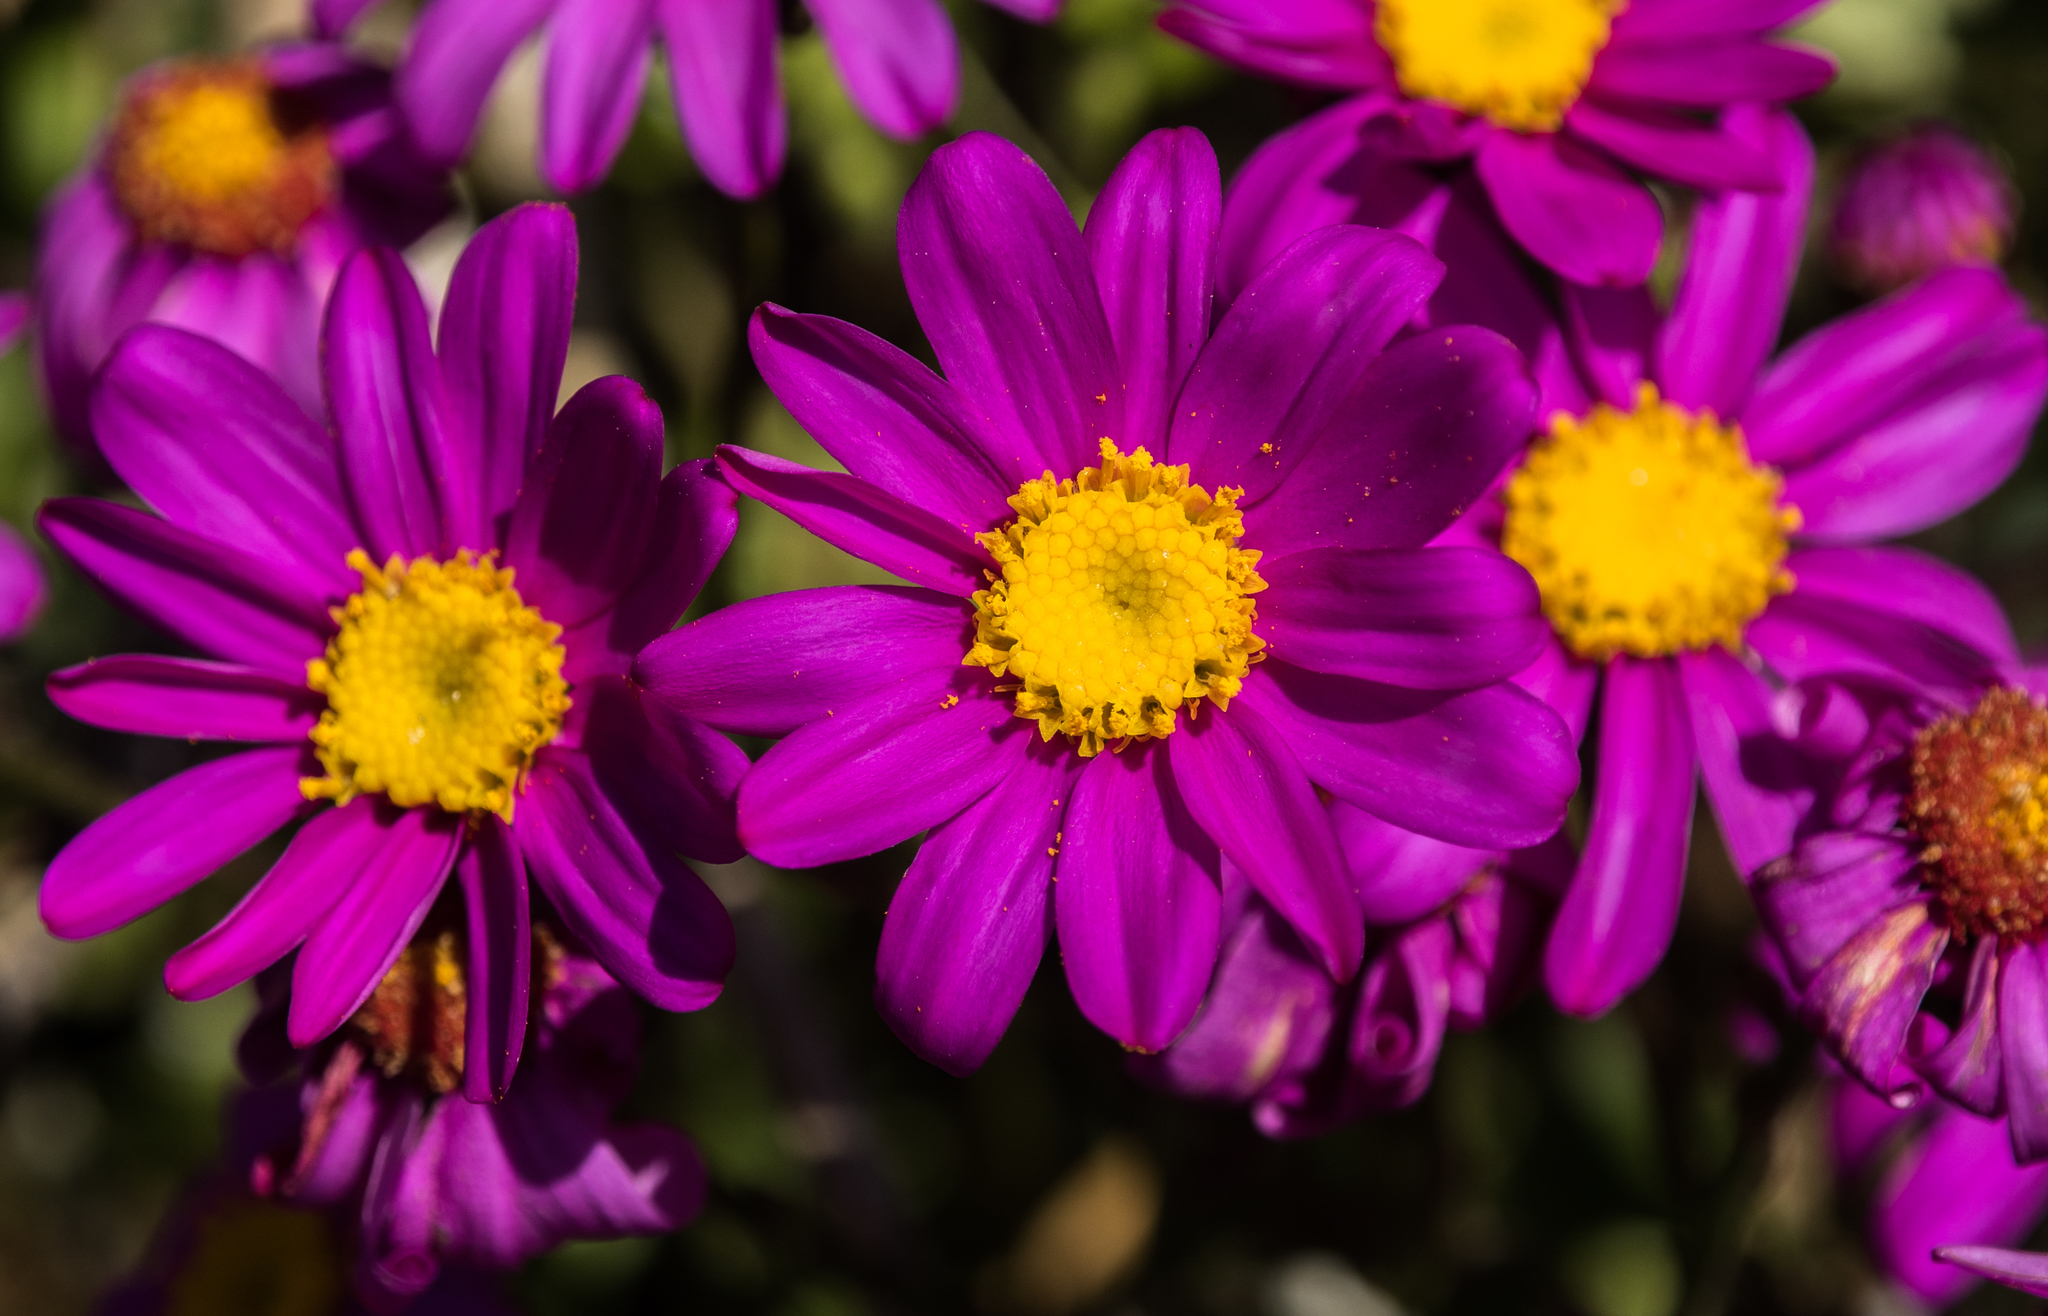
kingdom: Plantae
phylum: Tracheophyta
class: Magnoliopsida
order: Asterales
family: Asteraceae
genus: Senecio
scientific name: Senecio elegans
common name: Purple groundsel
